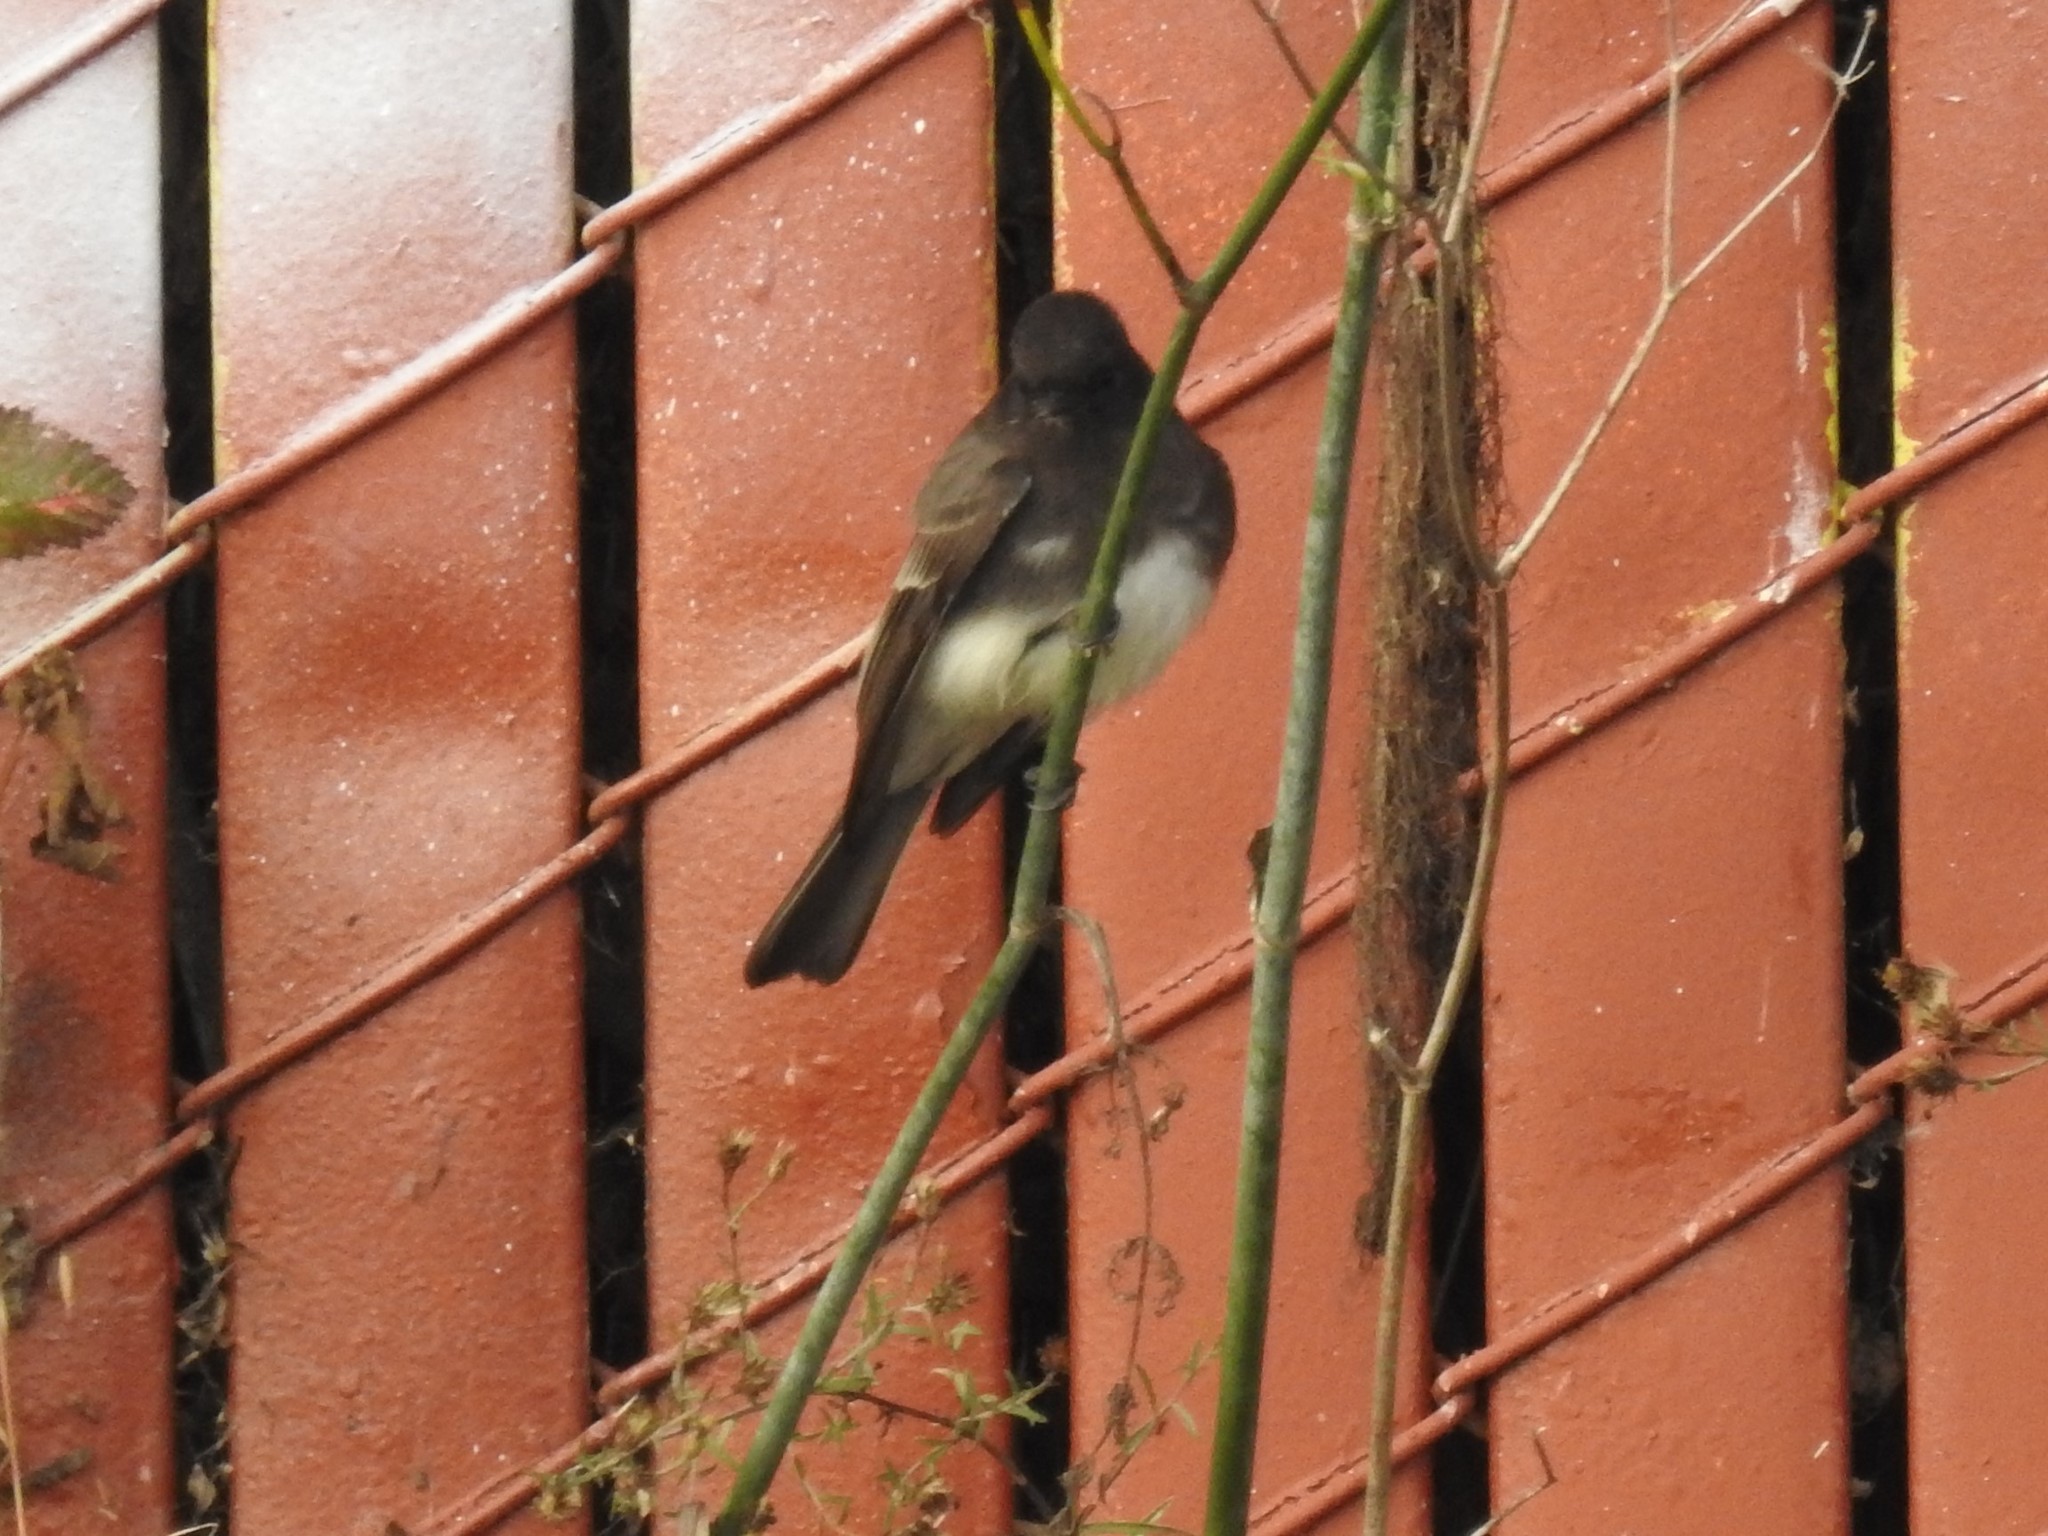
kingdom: Animalia
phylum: Chordata
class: Aves
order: Passeriformes
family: Tyrannidae
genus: Sayornis
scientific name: Sayornis nigricans
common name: Black phoebe
